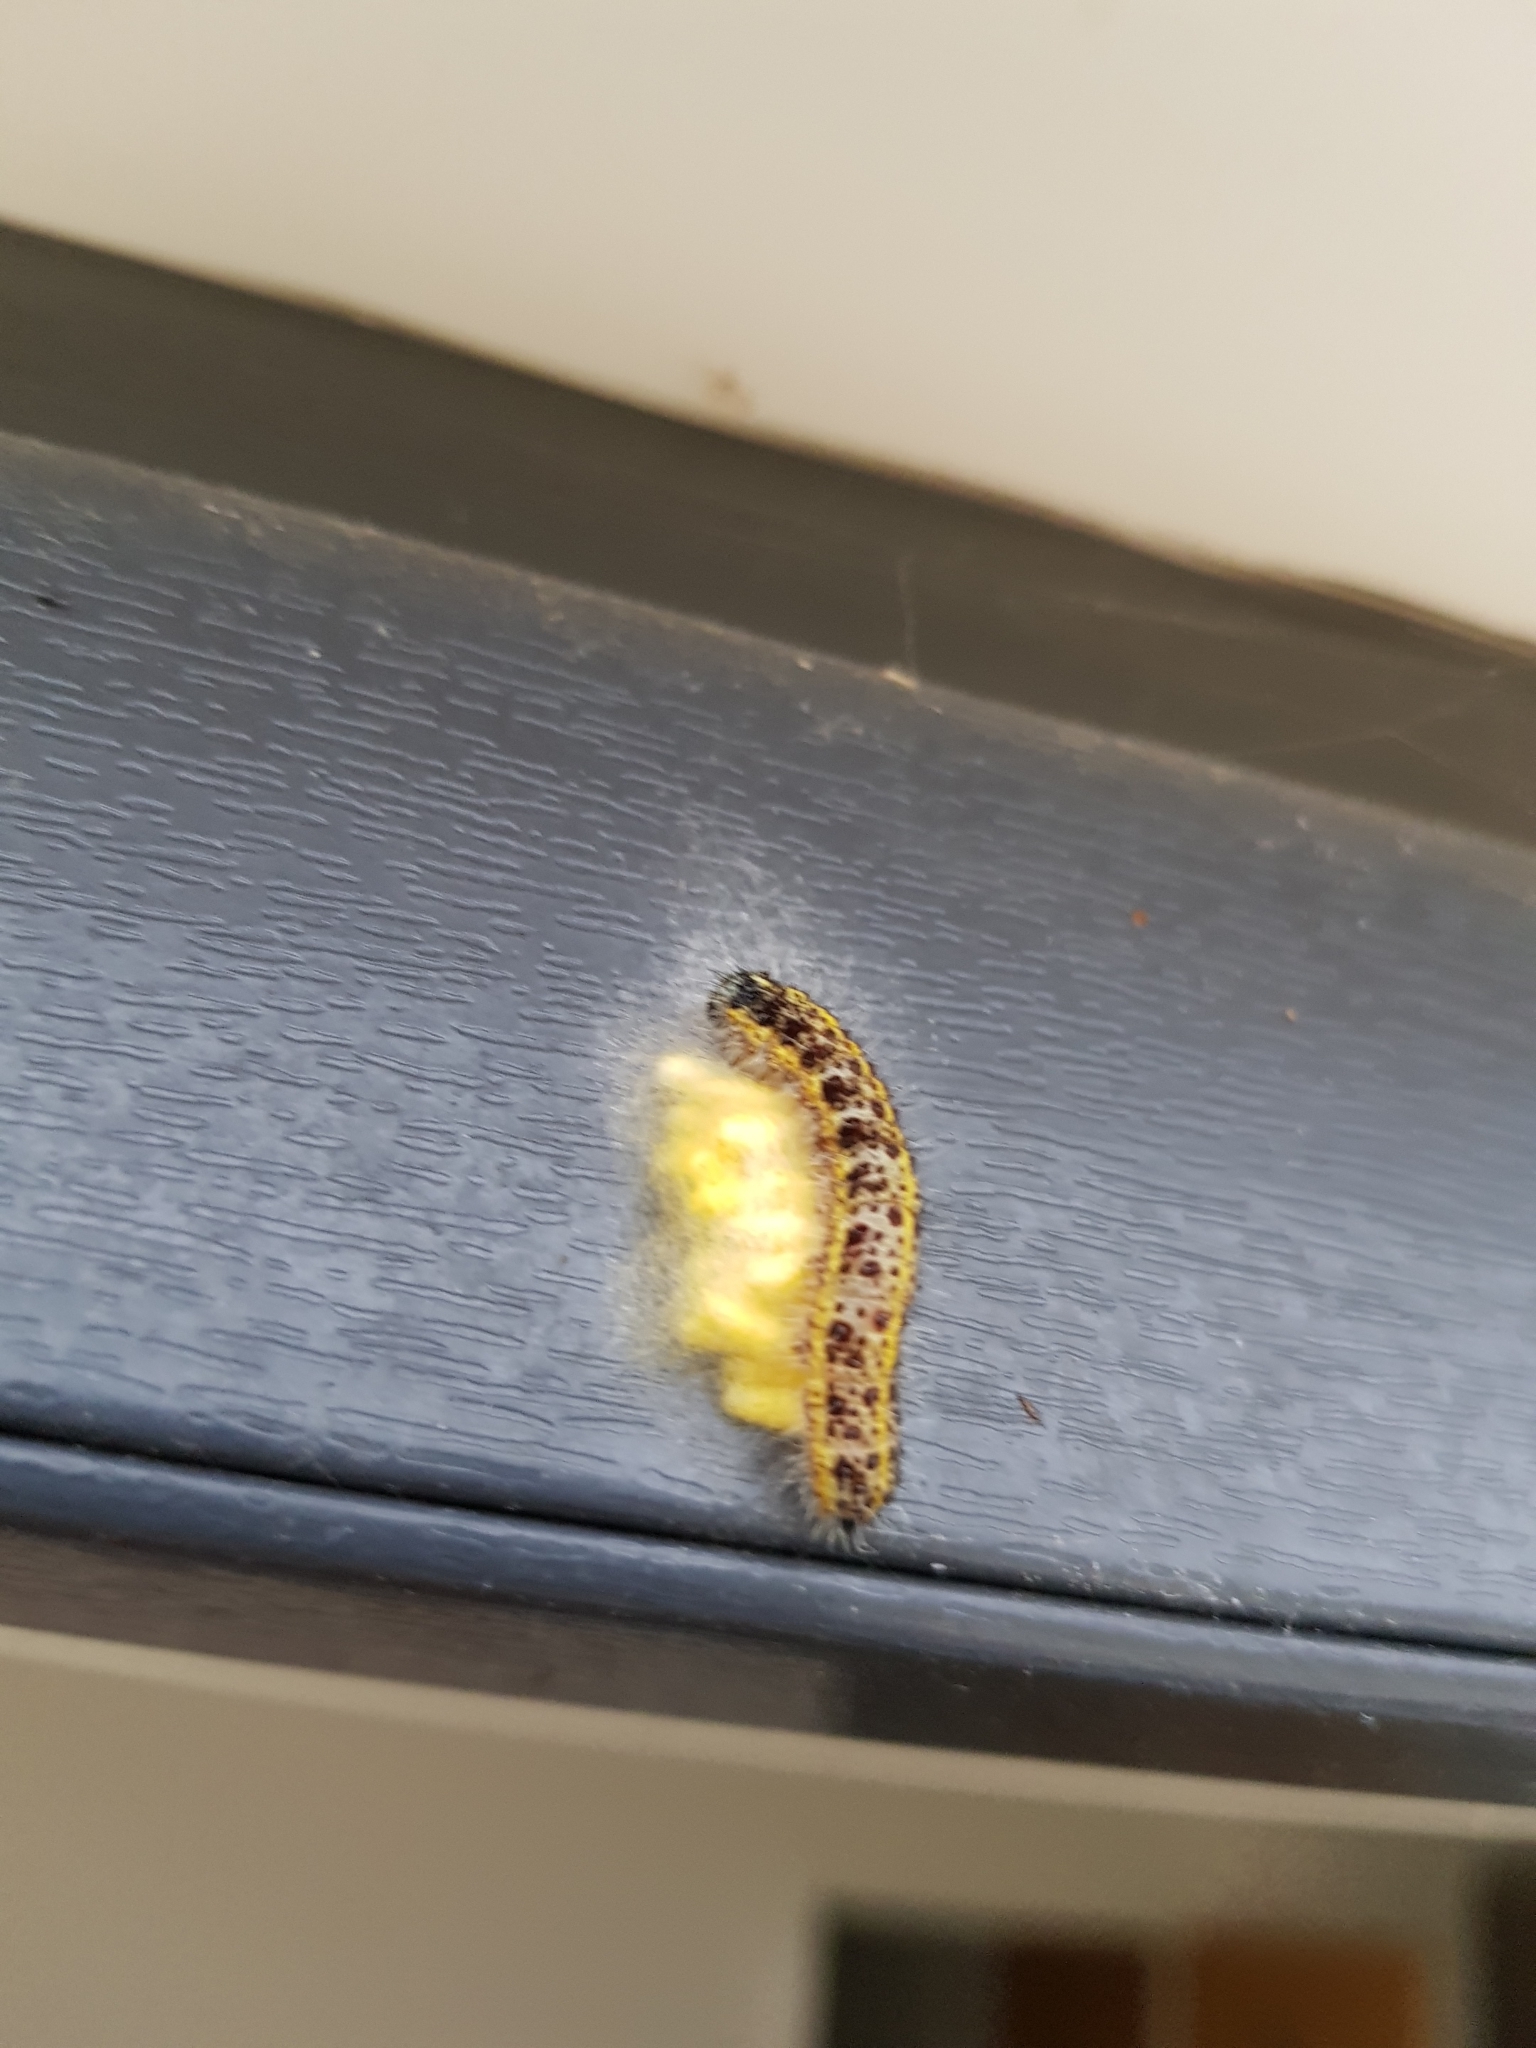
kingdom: Animalia
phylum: Arthropoda
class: Insecta
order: Lepidoptera
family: Pieridae
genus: Pieris
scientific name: Pieris brassicae
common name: Large white
